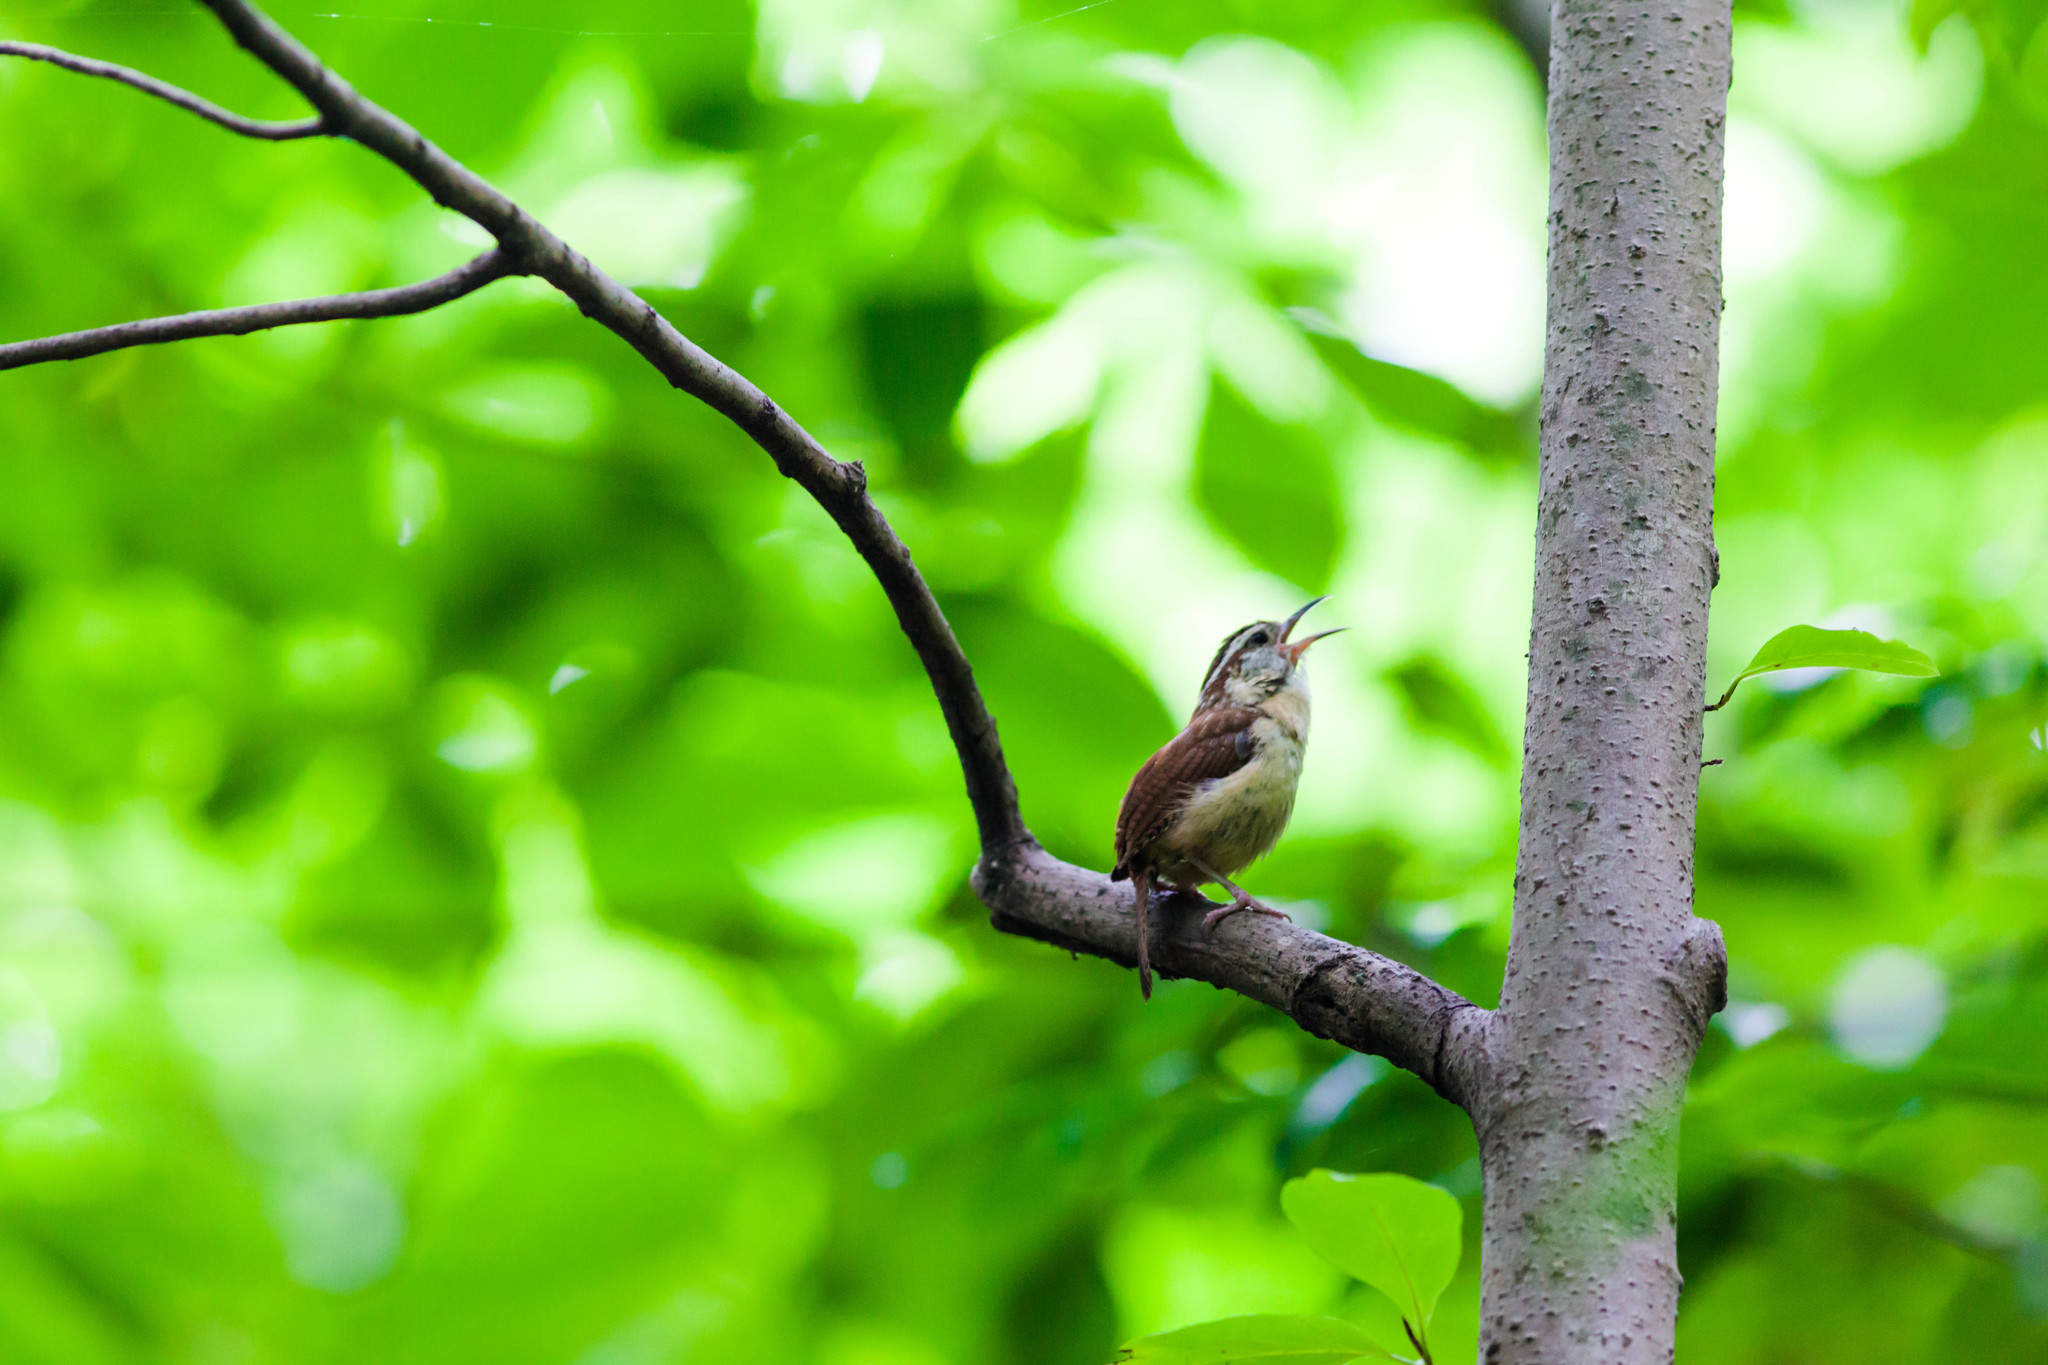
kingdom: Animalia
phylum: Chordata
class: Aves
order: Passeriformes
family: Troglodytidae
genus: Thryothorus
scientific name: Thryothorus ludovicianus
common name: Carolina wren
